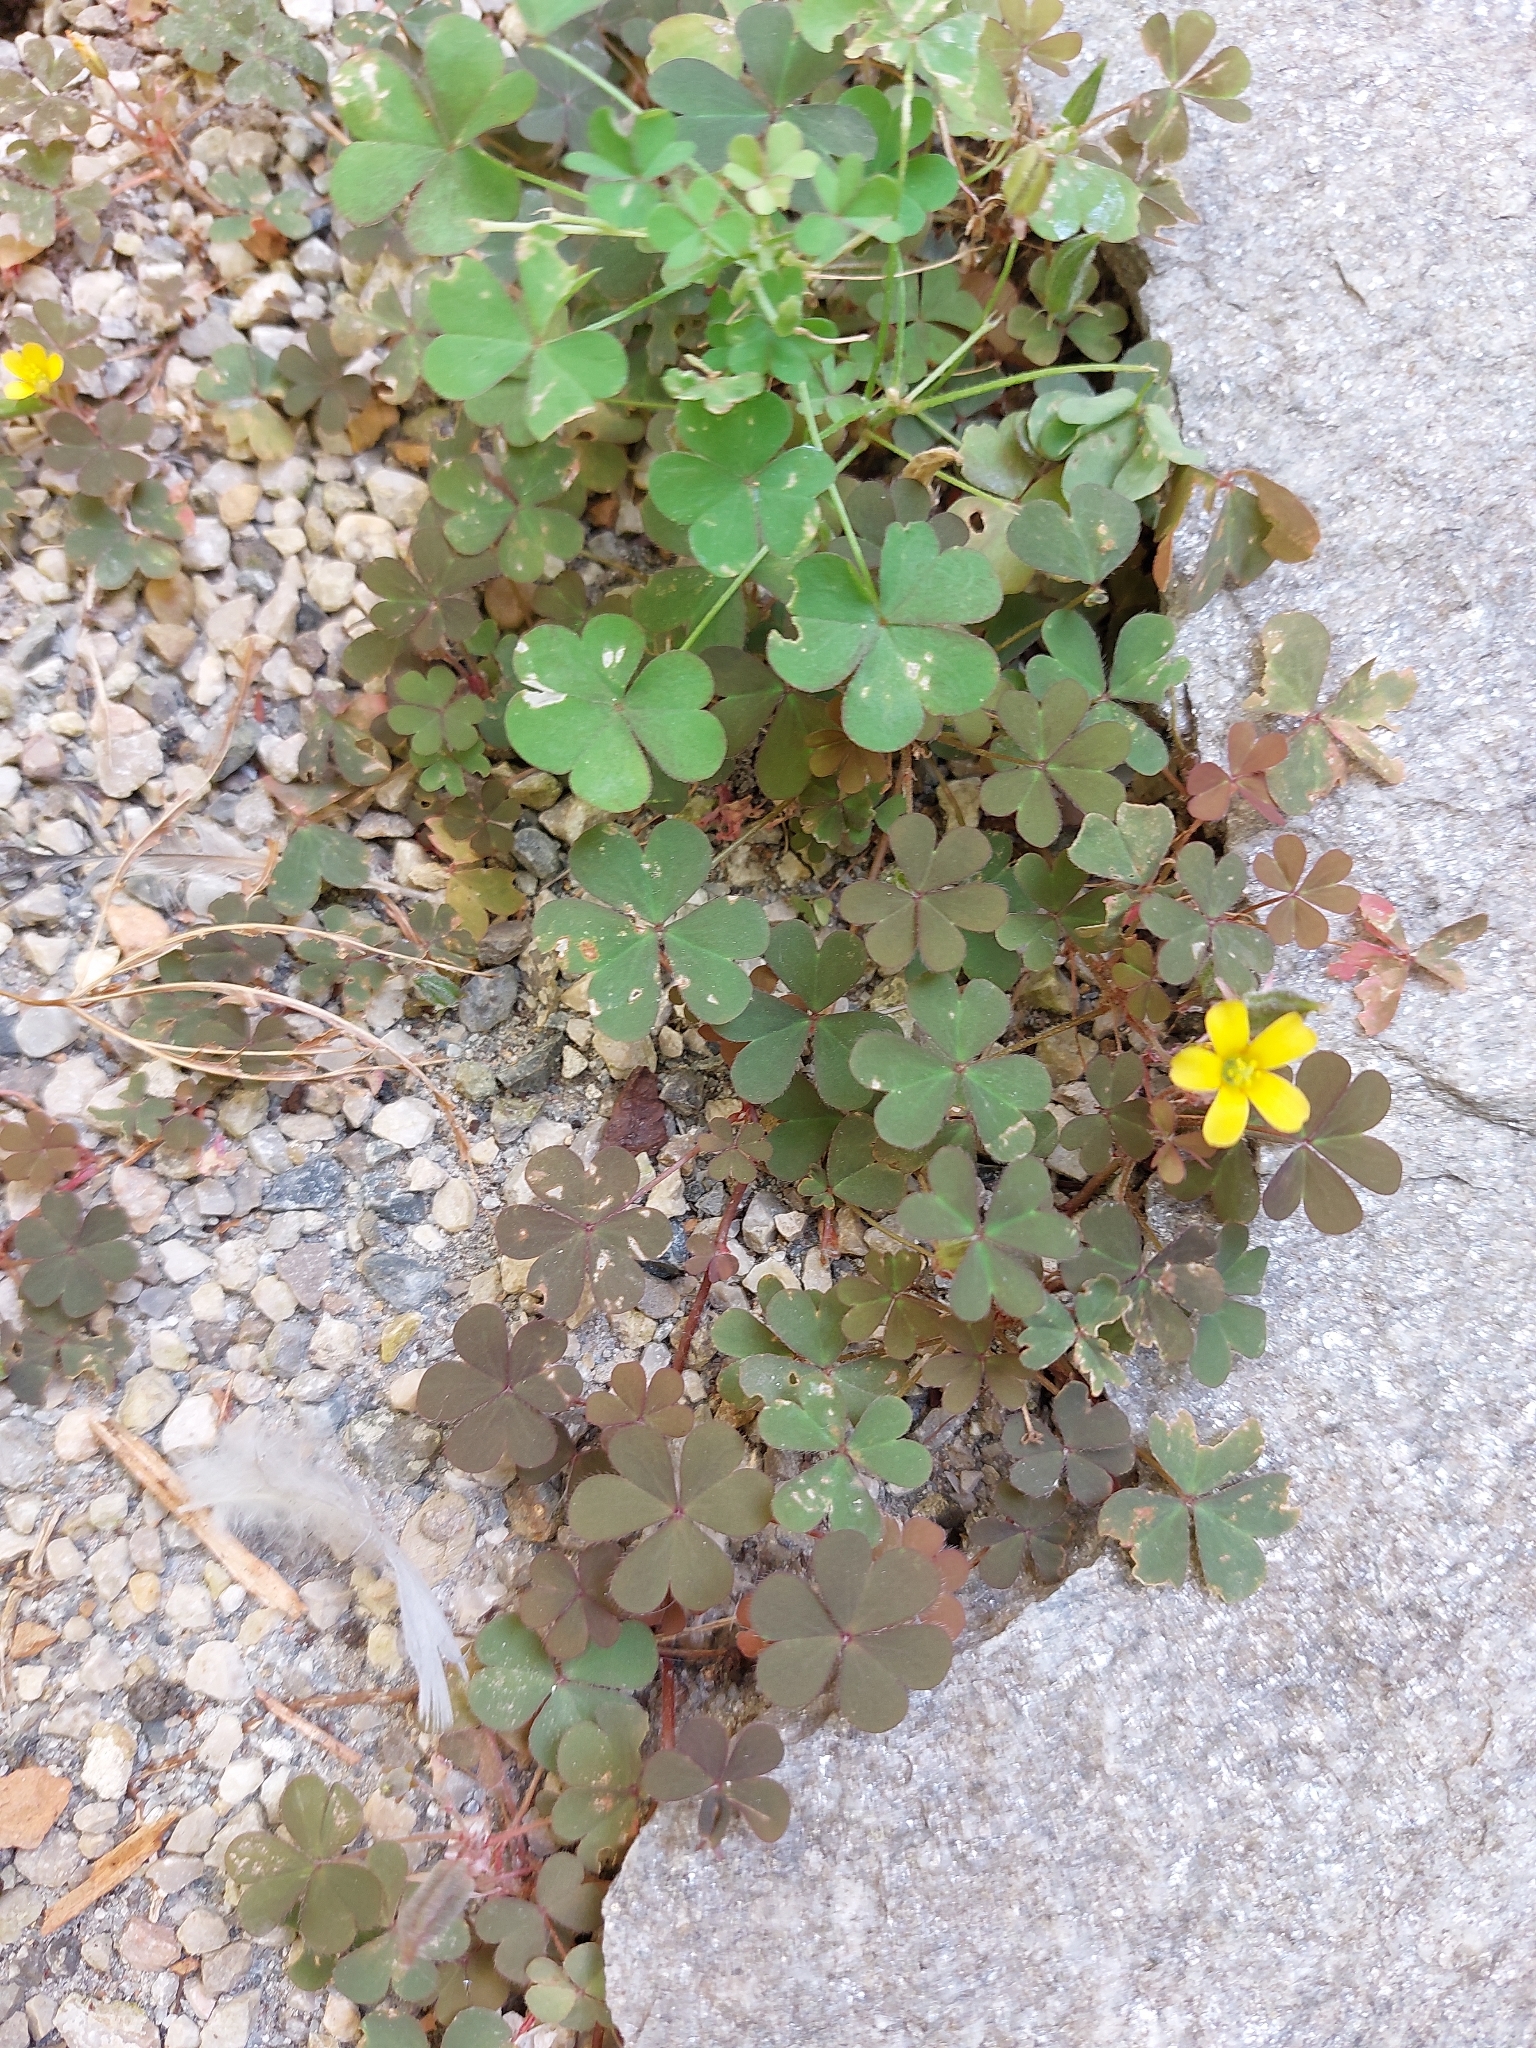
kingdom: Plantae
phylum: Tracheophyta
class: Magnoliopsida
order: Oxalidales
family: Oxalidaceae
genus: Oxalis
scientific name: Oxalis corniculata
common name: Procumbent yellow-sorrel
